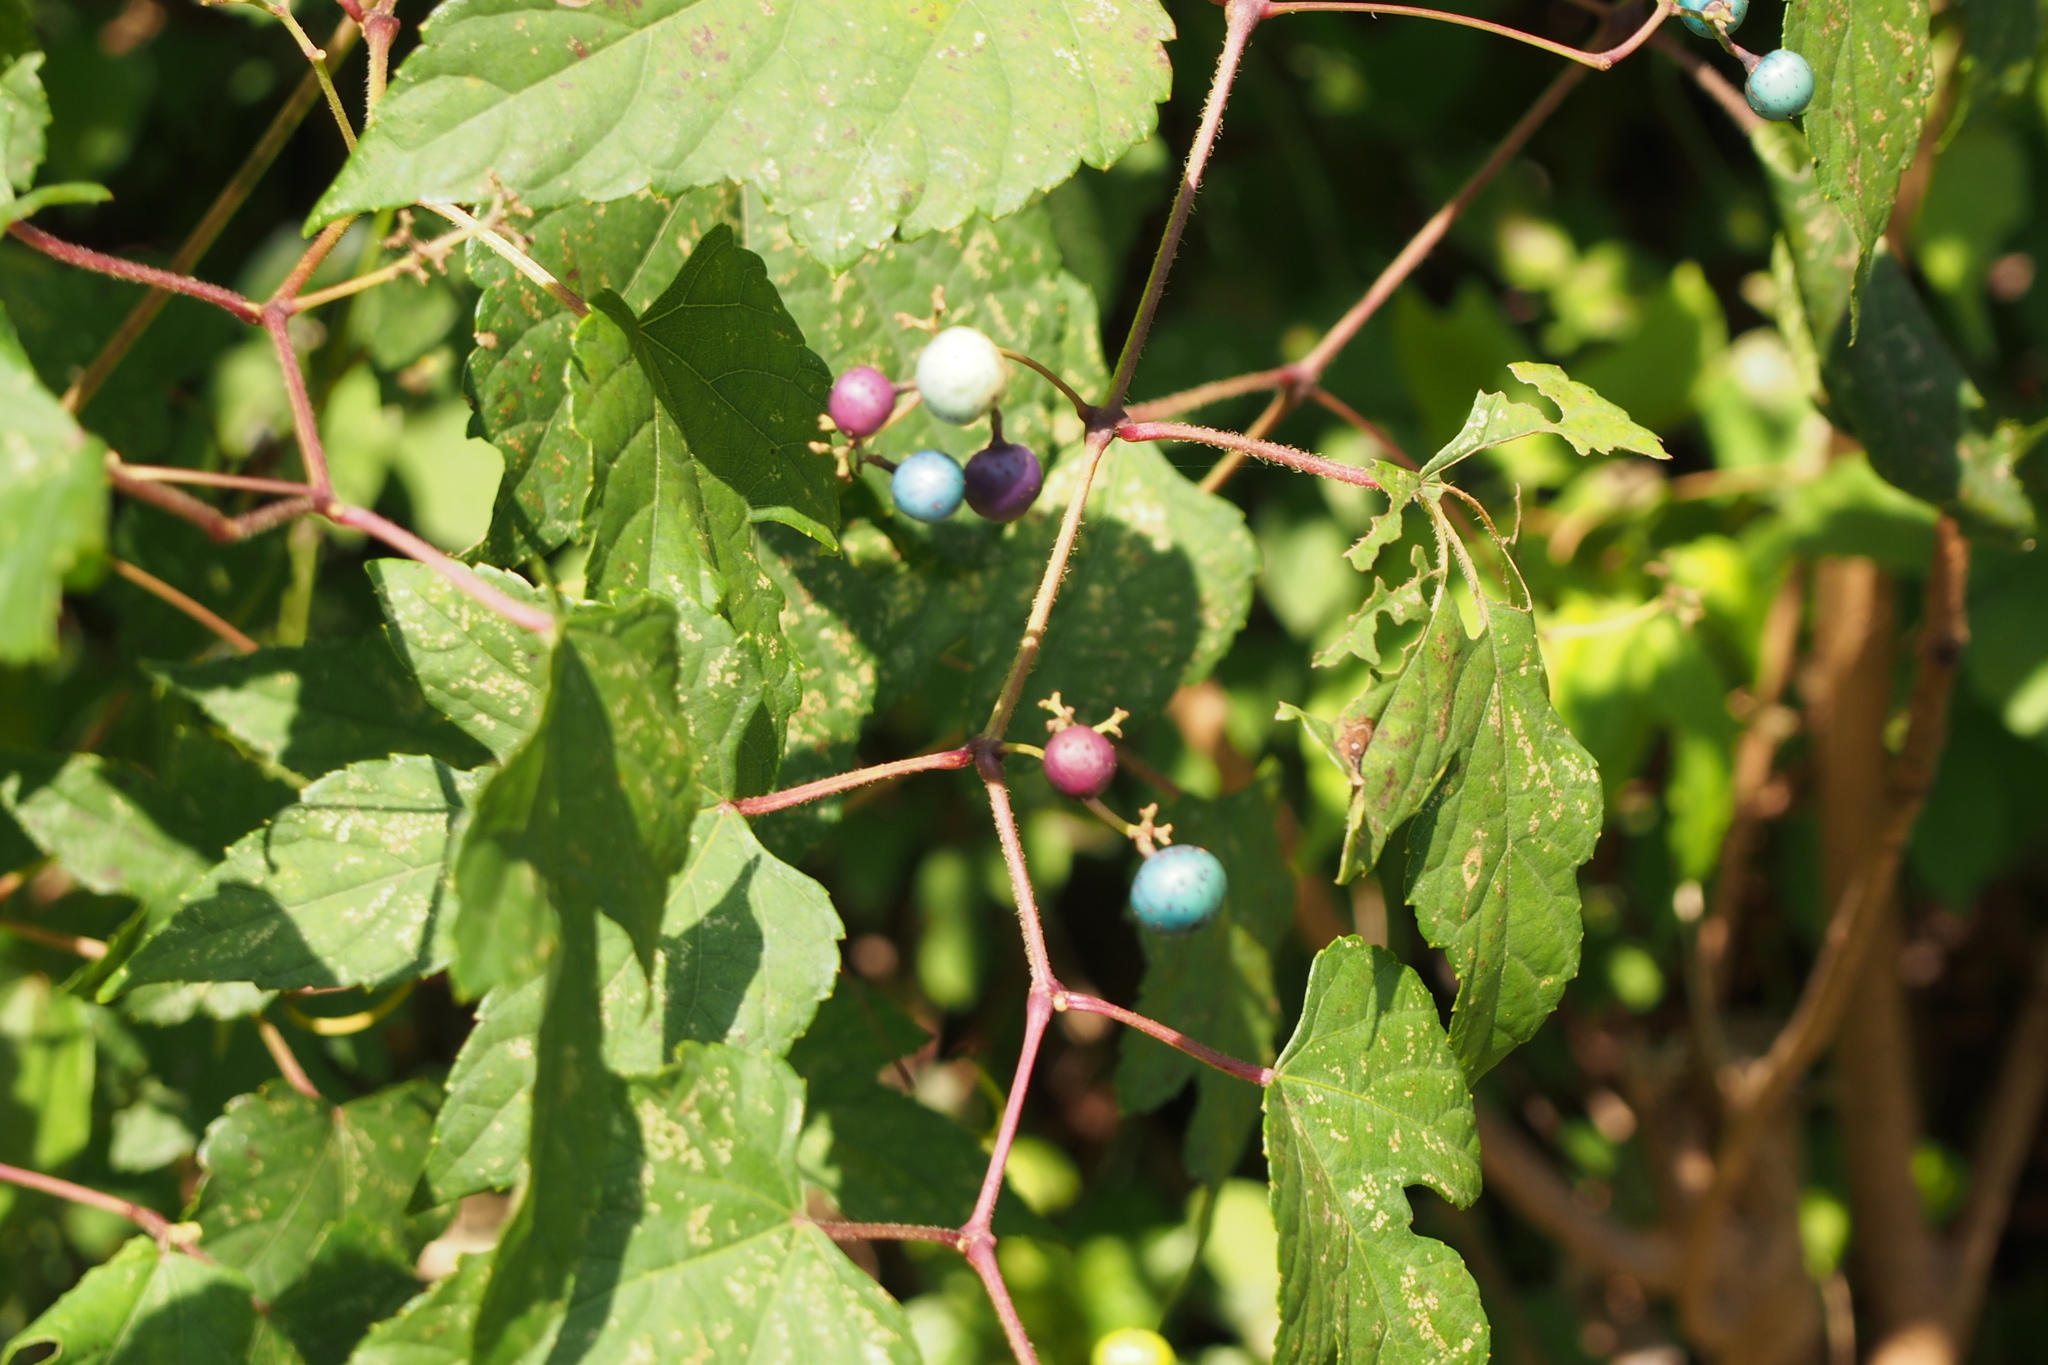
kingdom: Plantae
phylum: Tracheophyta
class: Magnoliopsida
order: Vitales
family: Vitaceae
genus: Ampelopsis
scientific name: Ampelopsis glandulosa
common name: Amur peppervine
